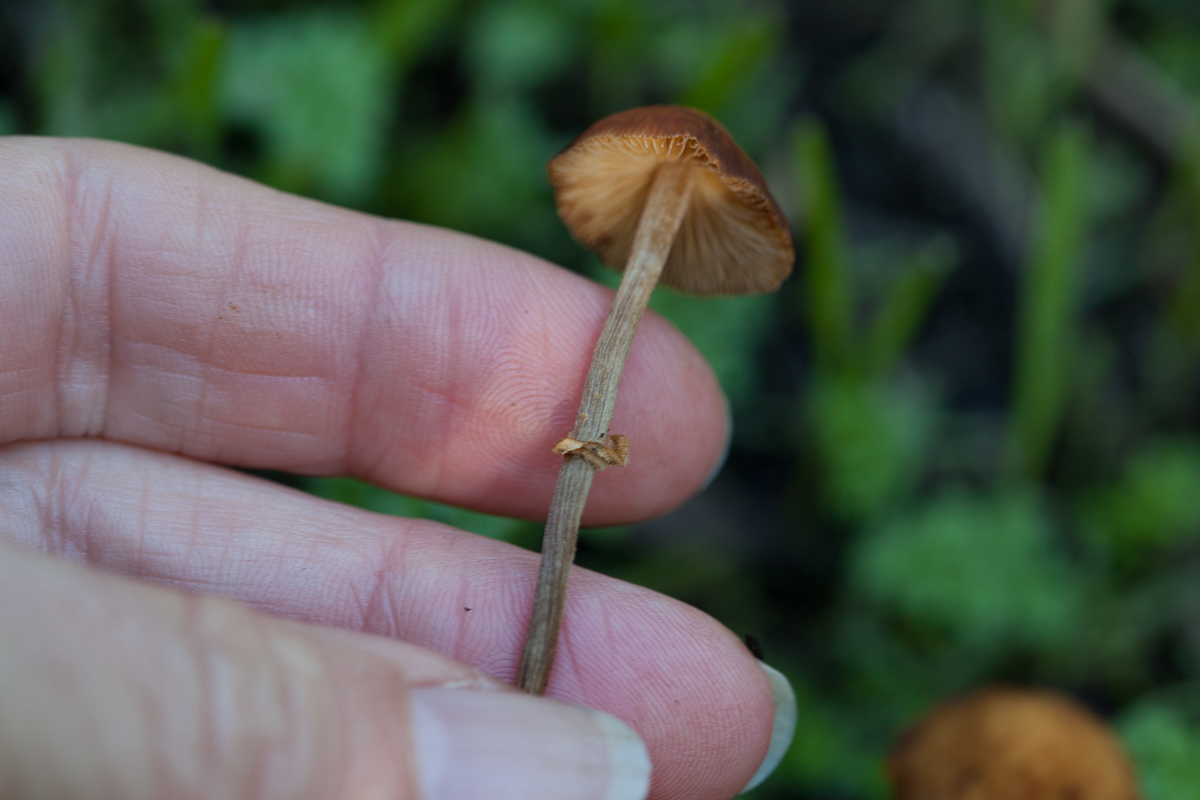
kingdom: Fungi
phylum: Basidiomycota
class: Agaricomycetes
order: Agaricales
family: Bolbitiaceae
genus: Conocybe
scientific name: Conocybe rugosa
